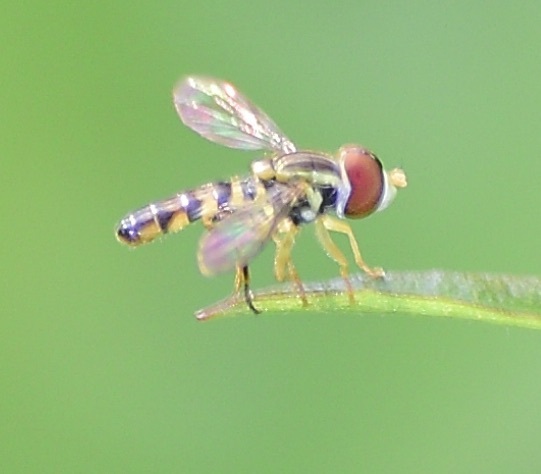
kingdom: Animalia
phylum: Arthropoda
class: Insecta
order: Diptera
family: Syrphidae
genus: Toxomerus
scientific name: Toxomerus geminatus
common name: Eastern calligrapher
